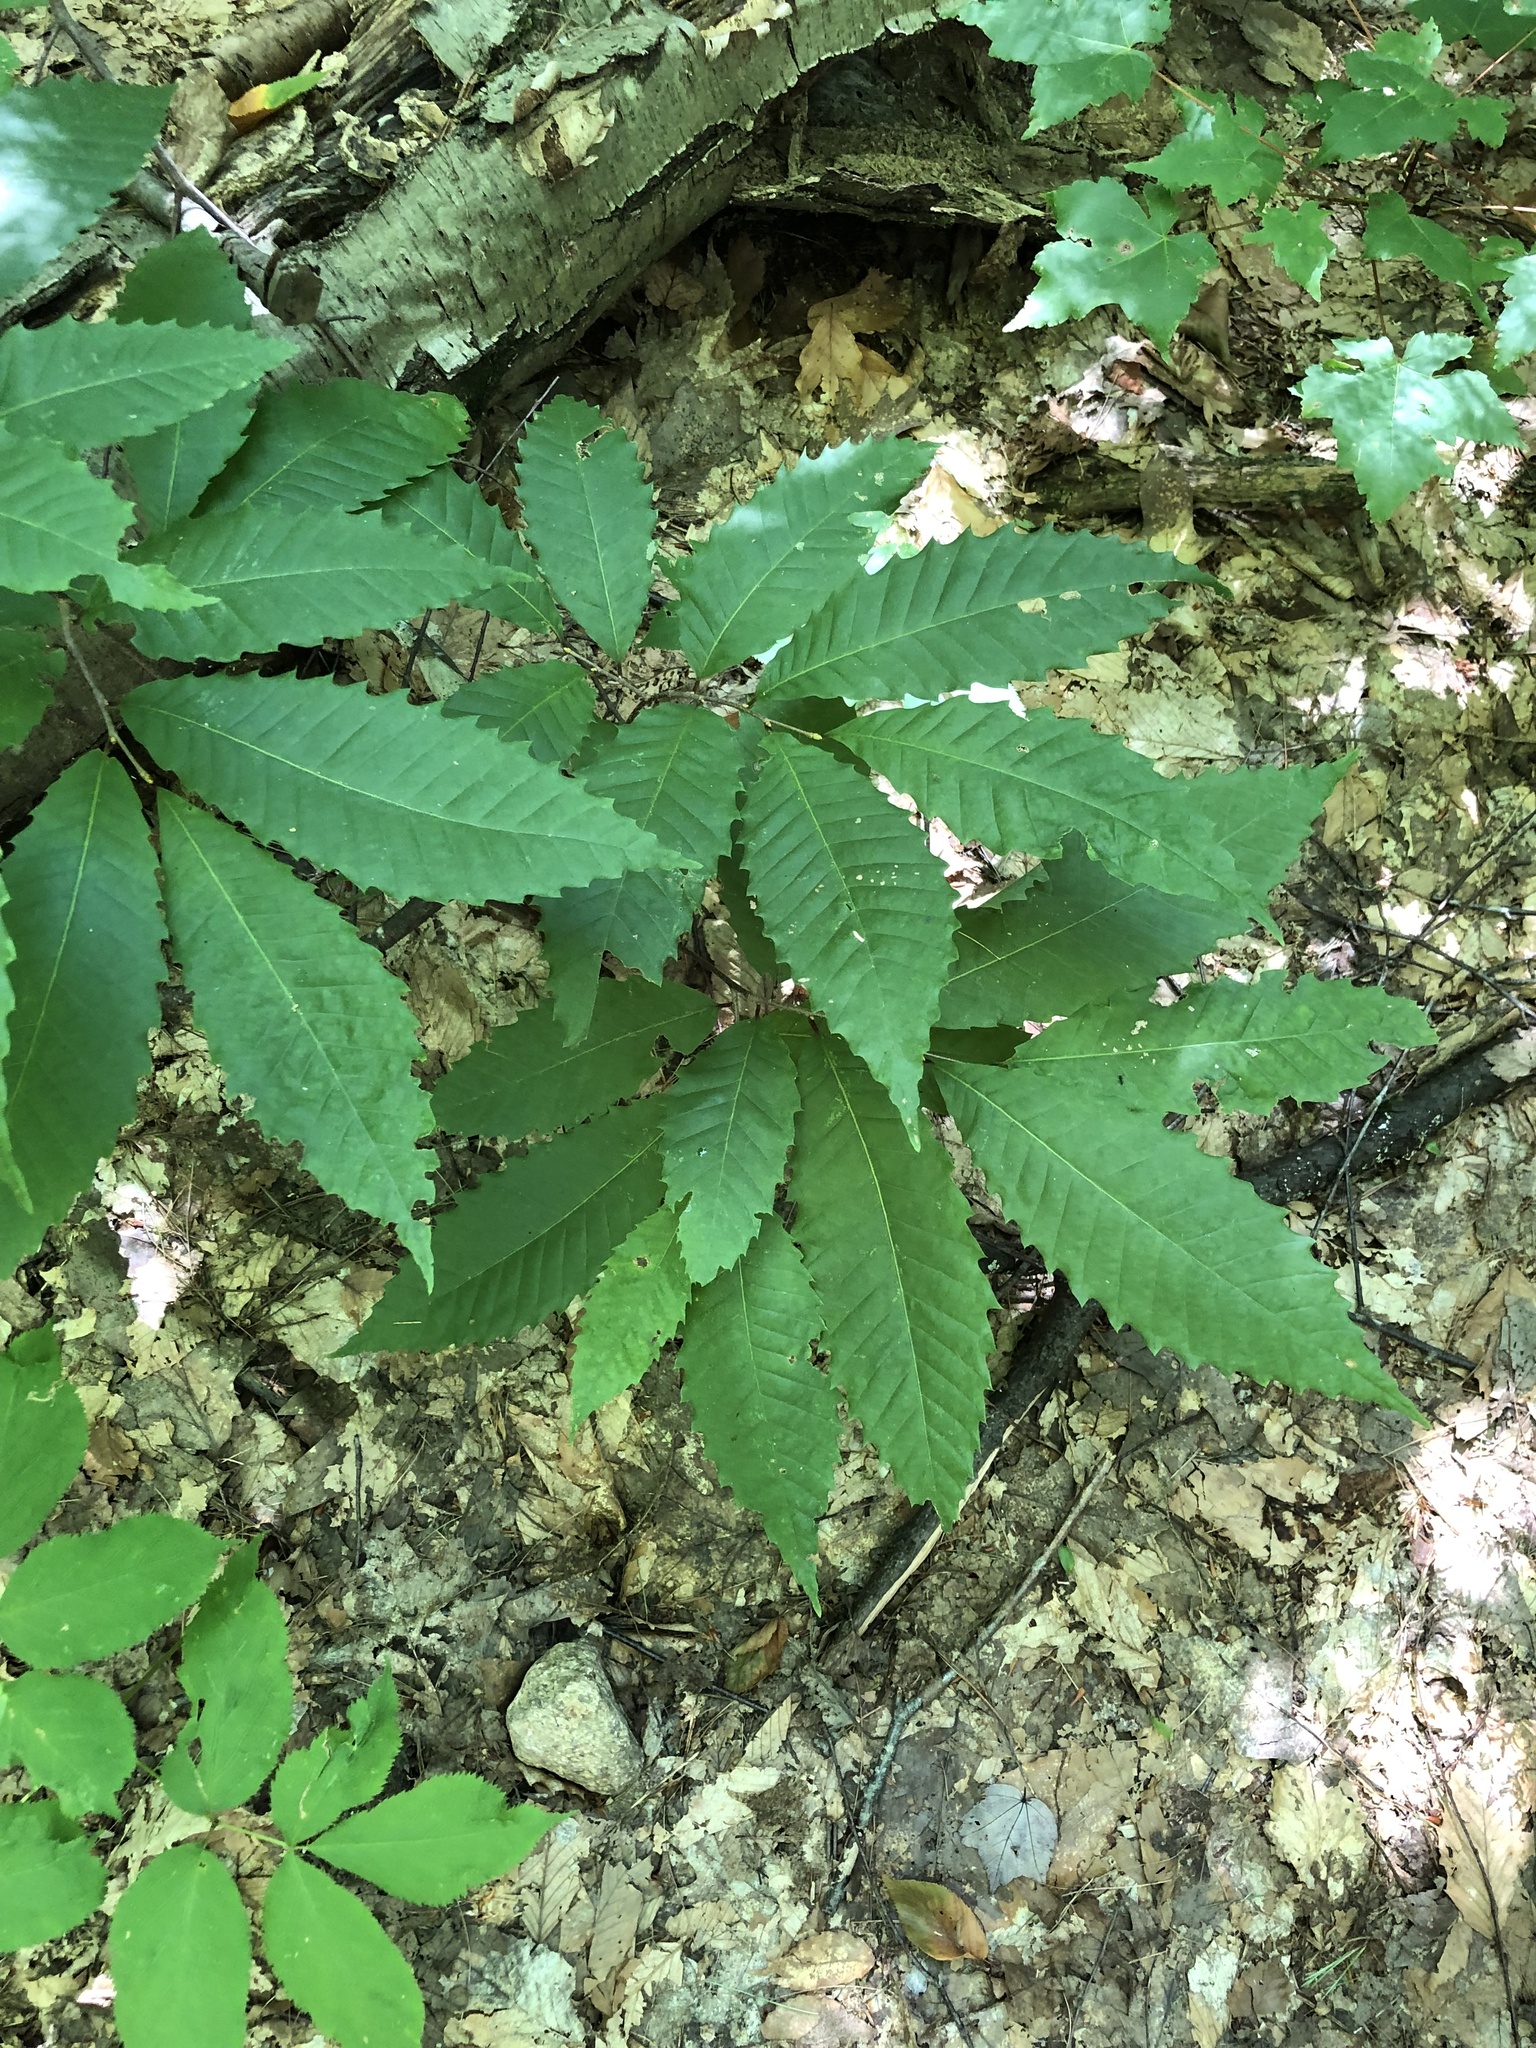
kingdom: Plantae
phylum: Tracheophyta
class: Magnoliopsida
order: Fagales
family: Fagaceae
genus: Castanea
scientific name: Castanea dentata
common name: American chestnut
